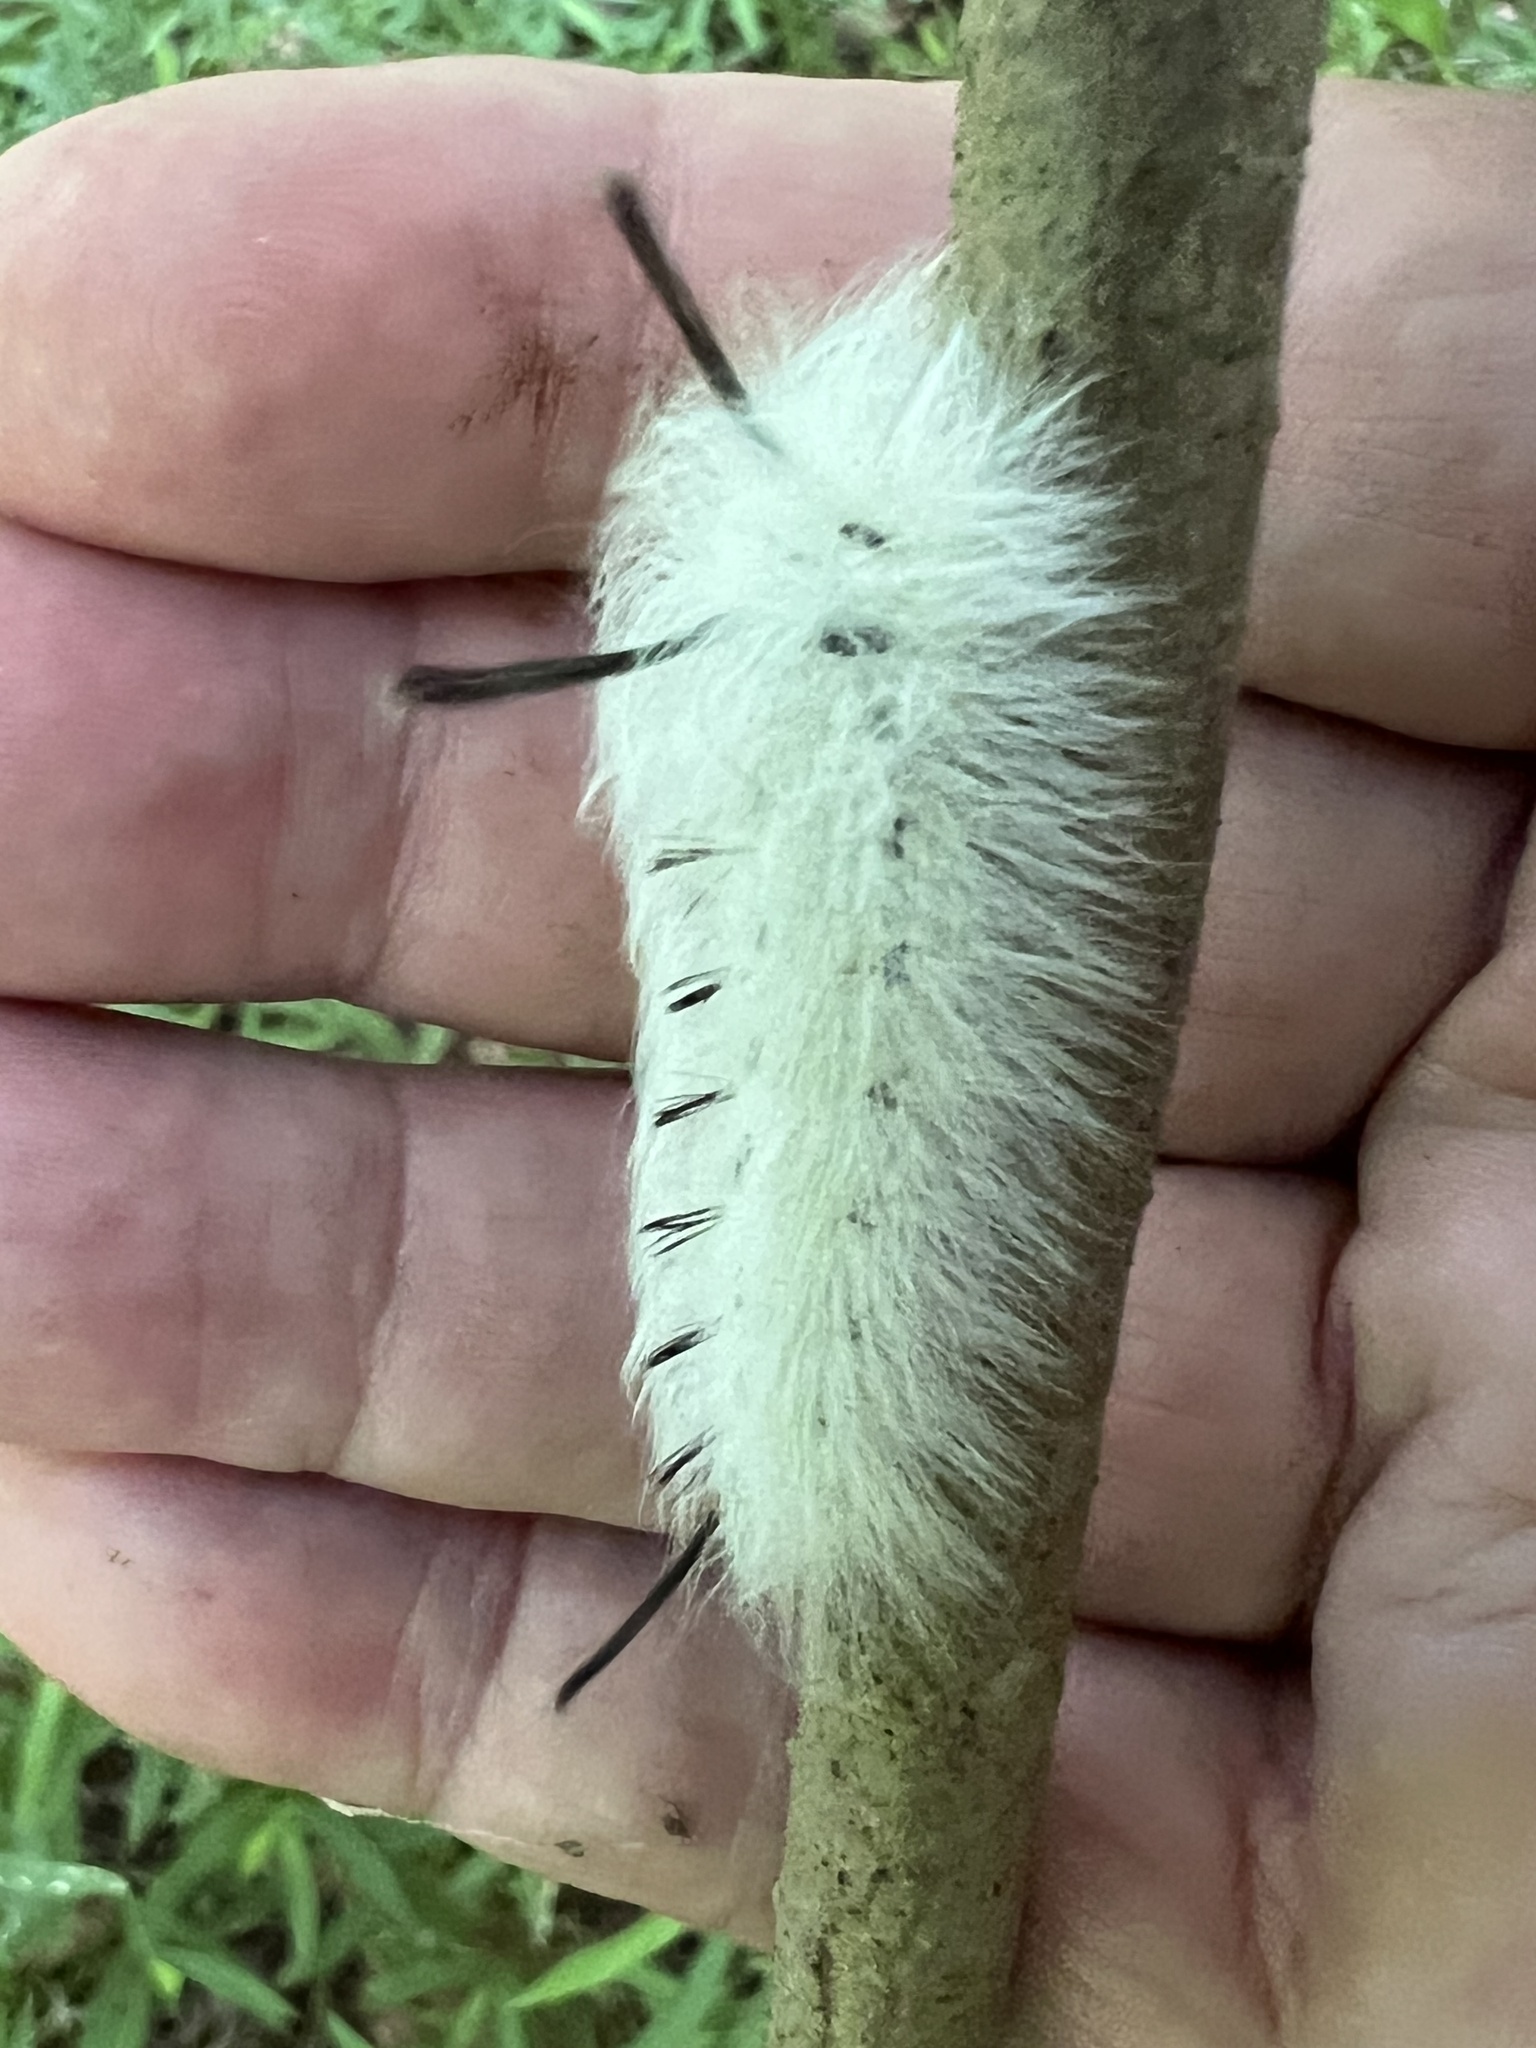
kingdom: Animalia
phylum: Arthropoda
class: Insecta
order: Lepidoptera
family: Apatelodidae
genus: Hygrochroa
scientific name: Hygrochroa Apatelodes torrefacta
